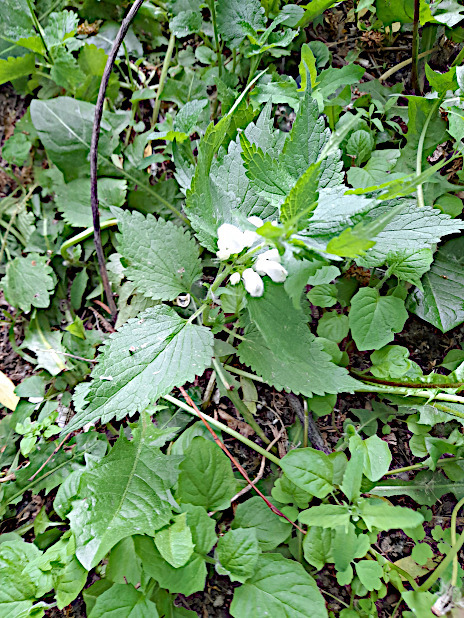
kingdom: Plantae
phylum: Tracheophyta
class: Magnoliopsida
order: Lamiales
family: Lamiaceae
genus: Lamium
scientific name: Lamium album
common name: White dead-nettle
